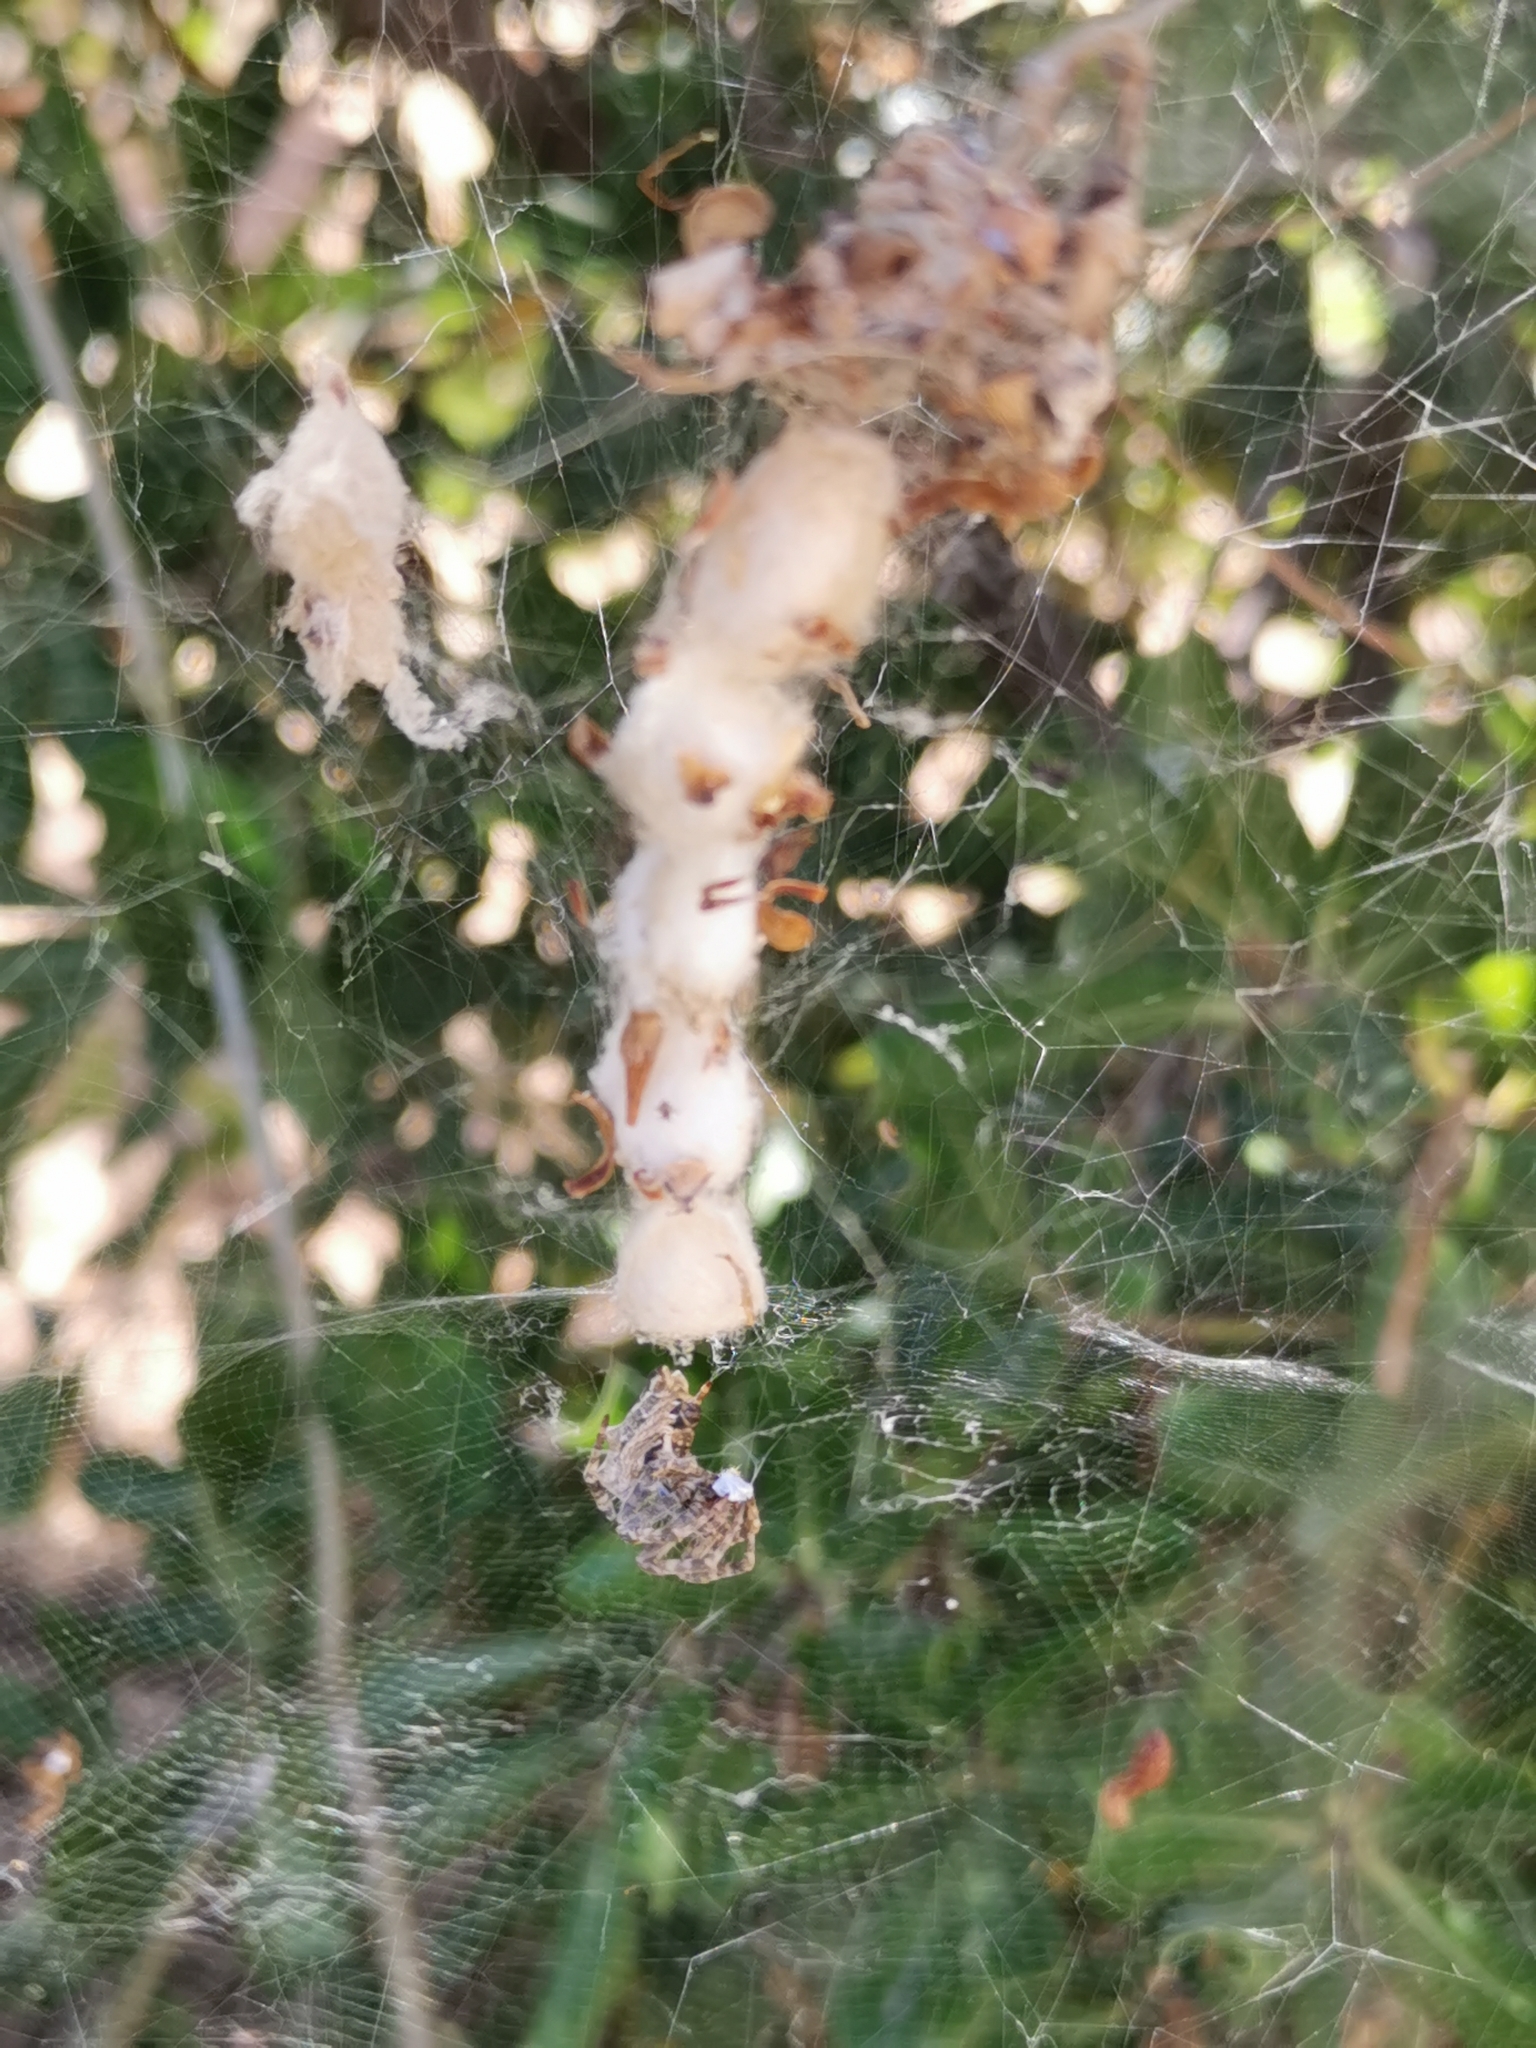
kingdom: Animalia
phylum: Arthropoda
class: Arachnida
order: Araneae
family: Araneidae
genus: Cyrtophora
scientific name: Cyrtophora citricola
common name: Orb weavers
